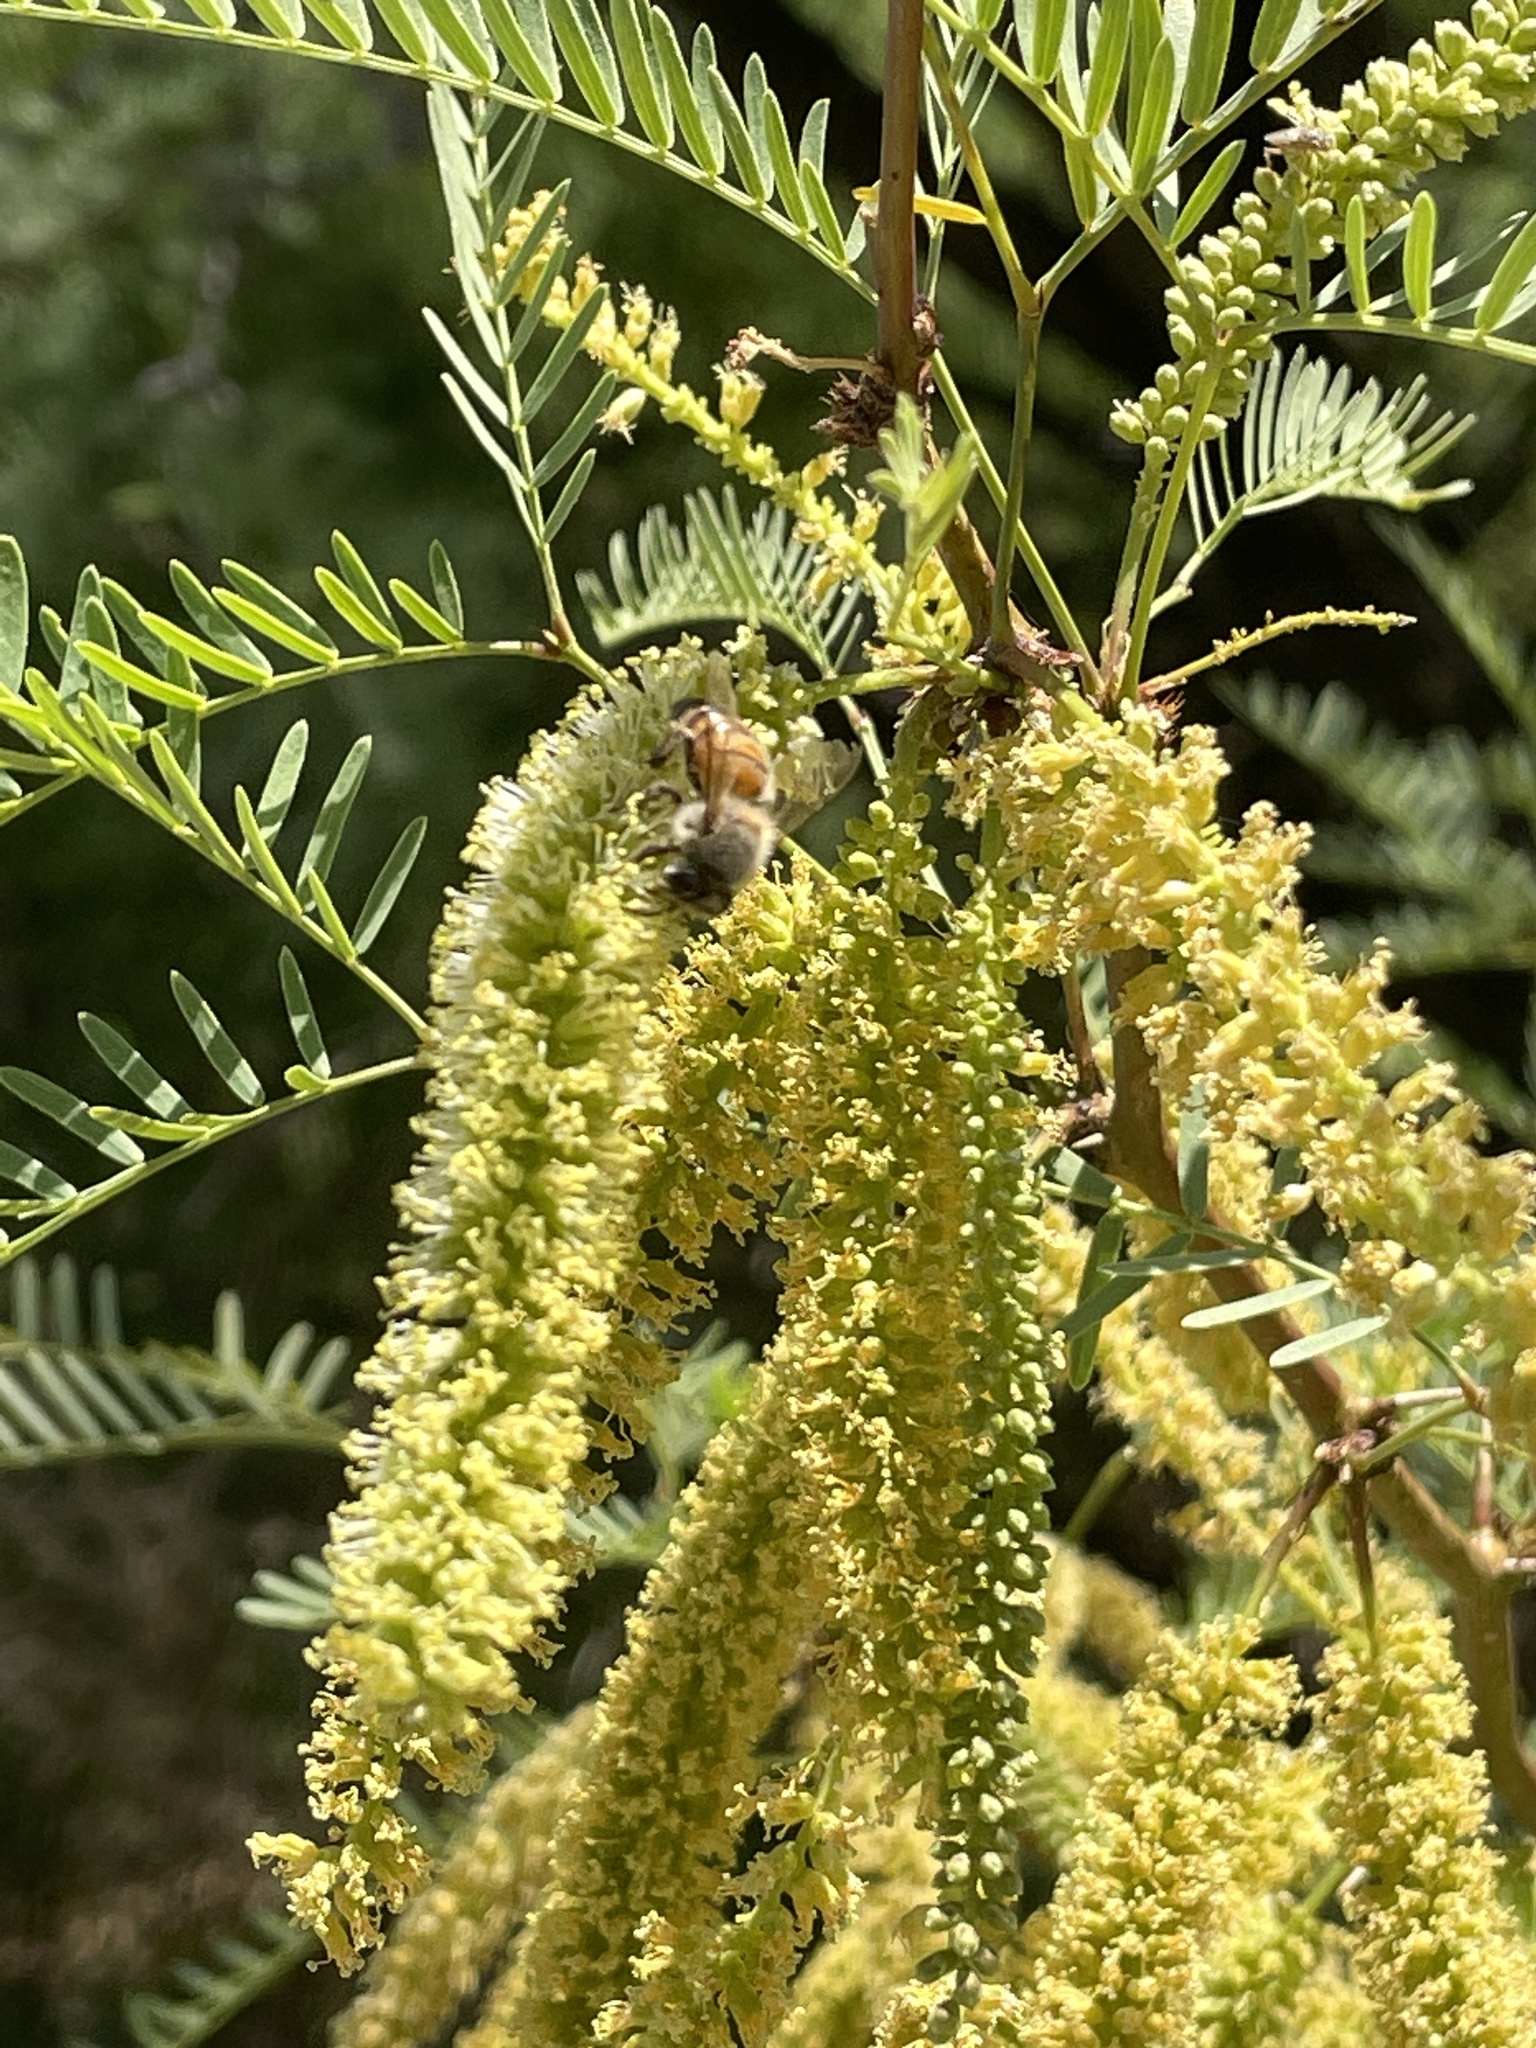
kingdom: Animalia
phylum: Arthropoda
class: Insecta
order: Hymenoptera
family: Apidae
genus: Apis
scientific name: Apis mellifera
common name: Honey bee
